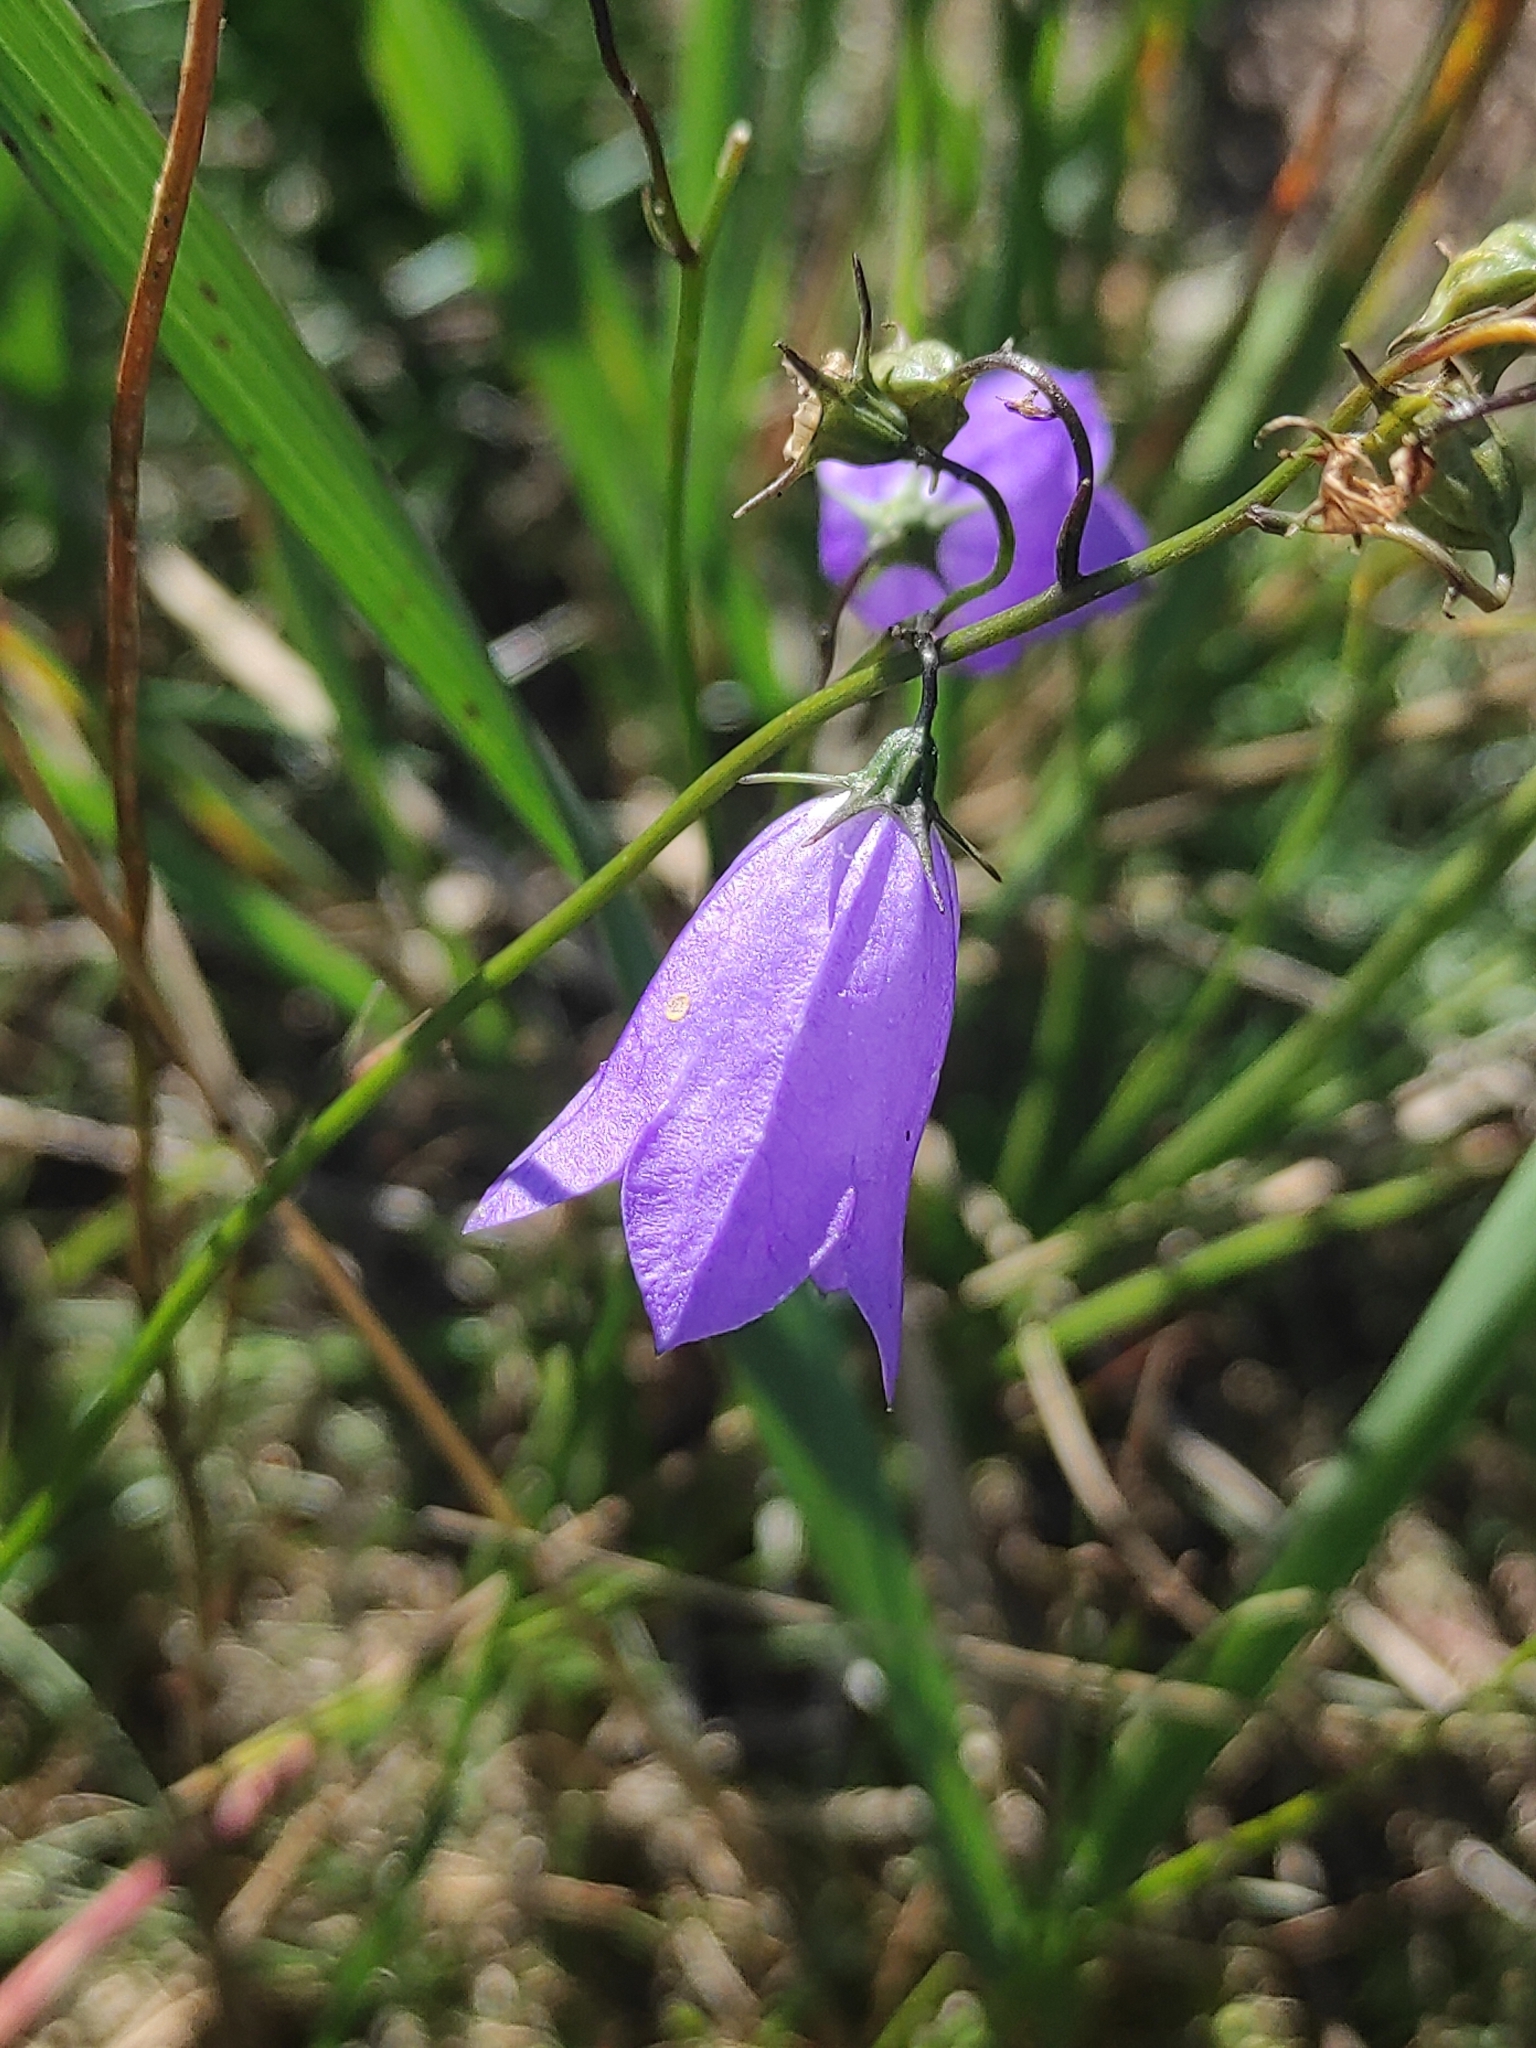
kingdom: Plantae
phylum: Tracheophyta
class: Magnoliopsida
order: Asterales
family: Campanulaceae
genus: Campanula
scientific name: Campanula rotundifolia
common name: Harebell
